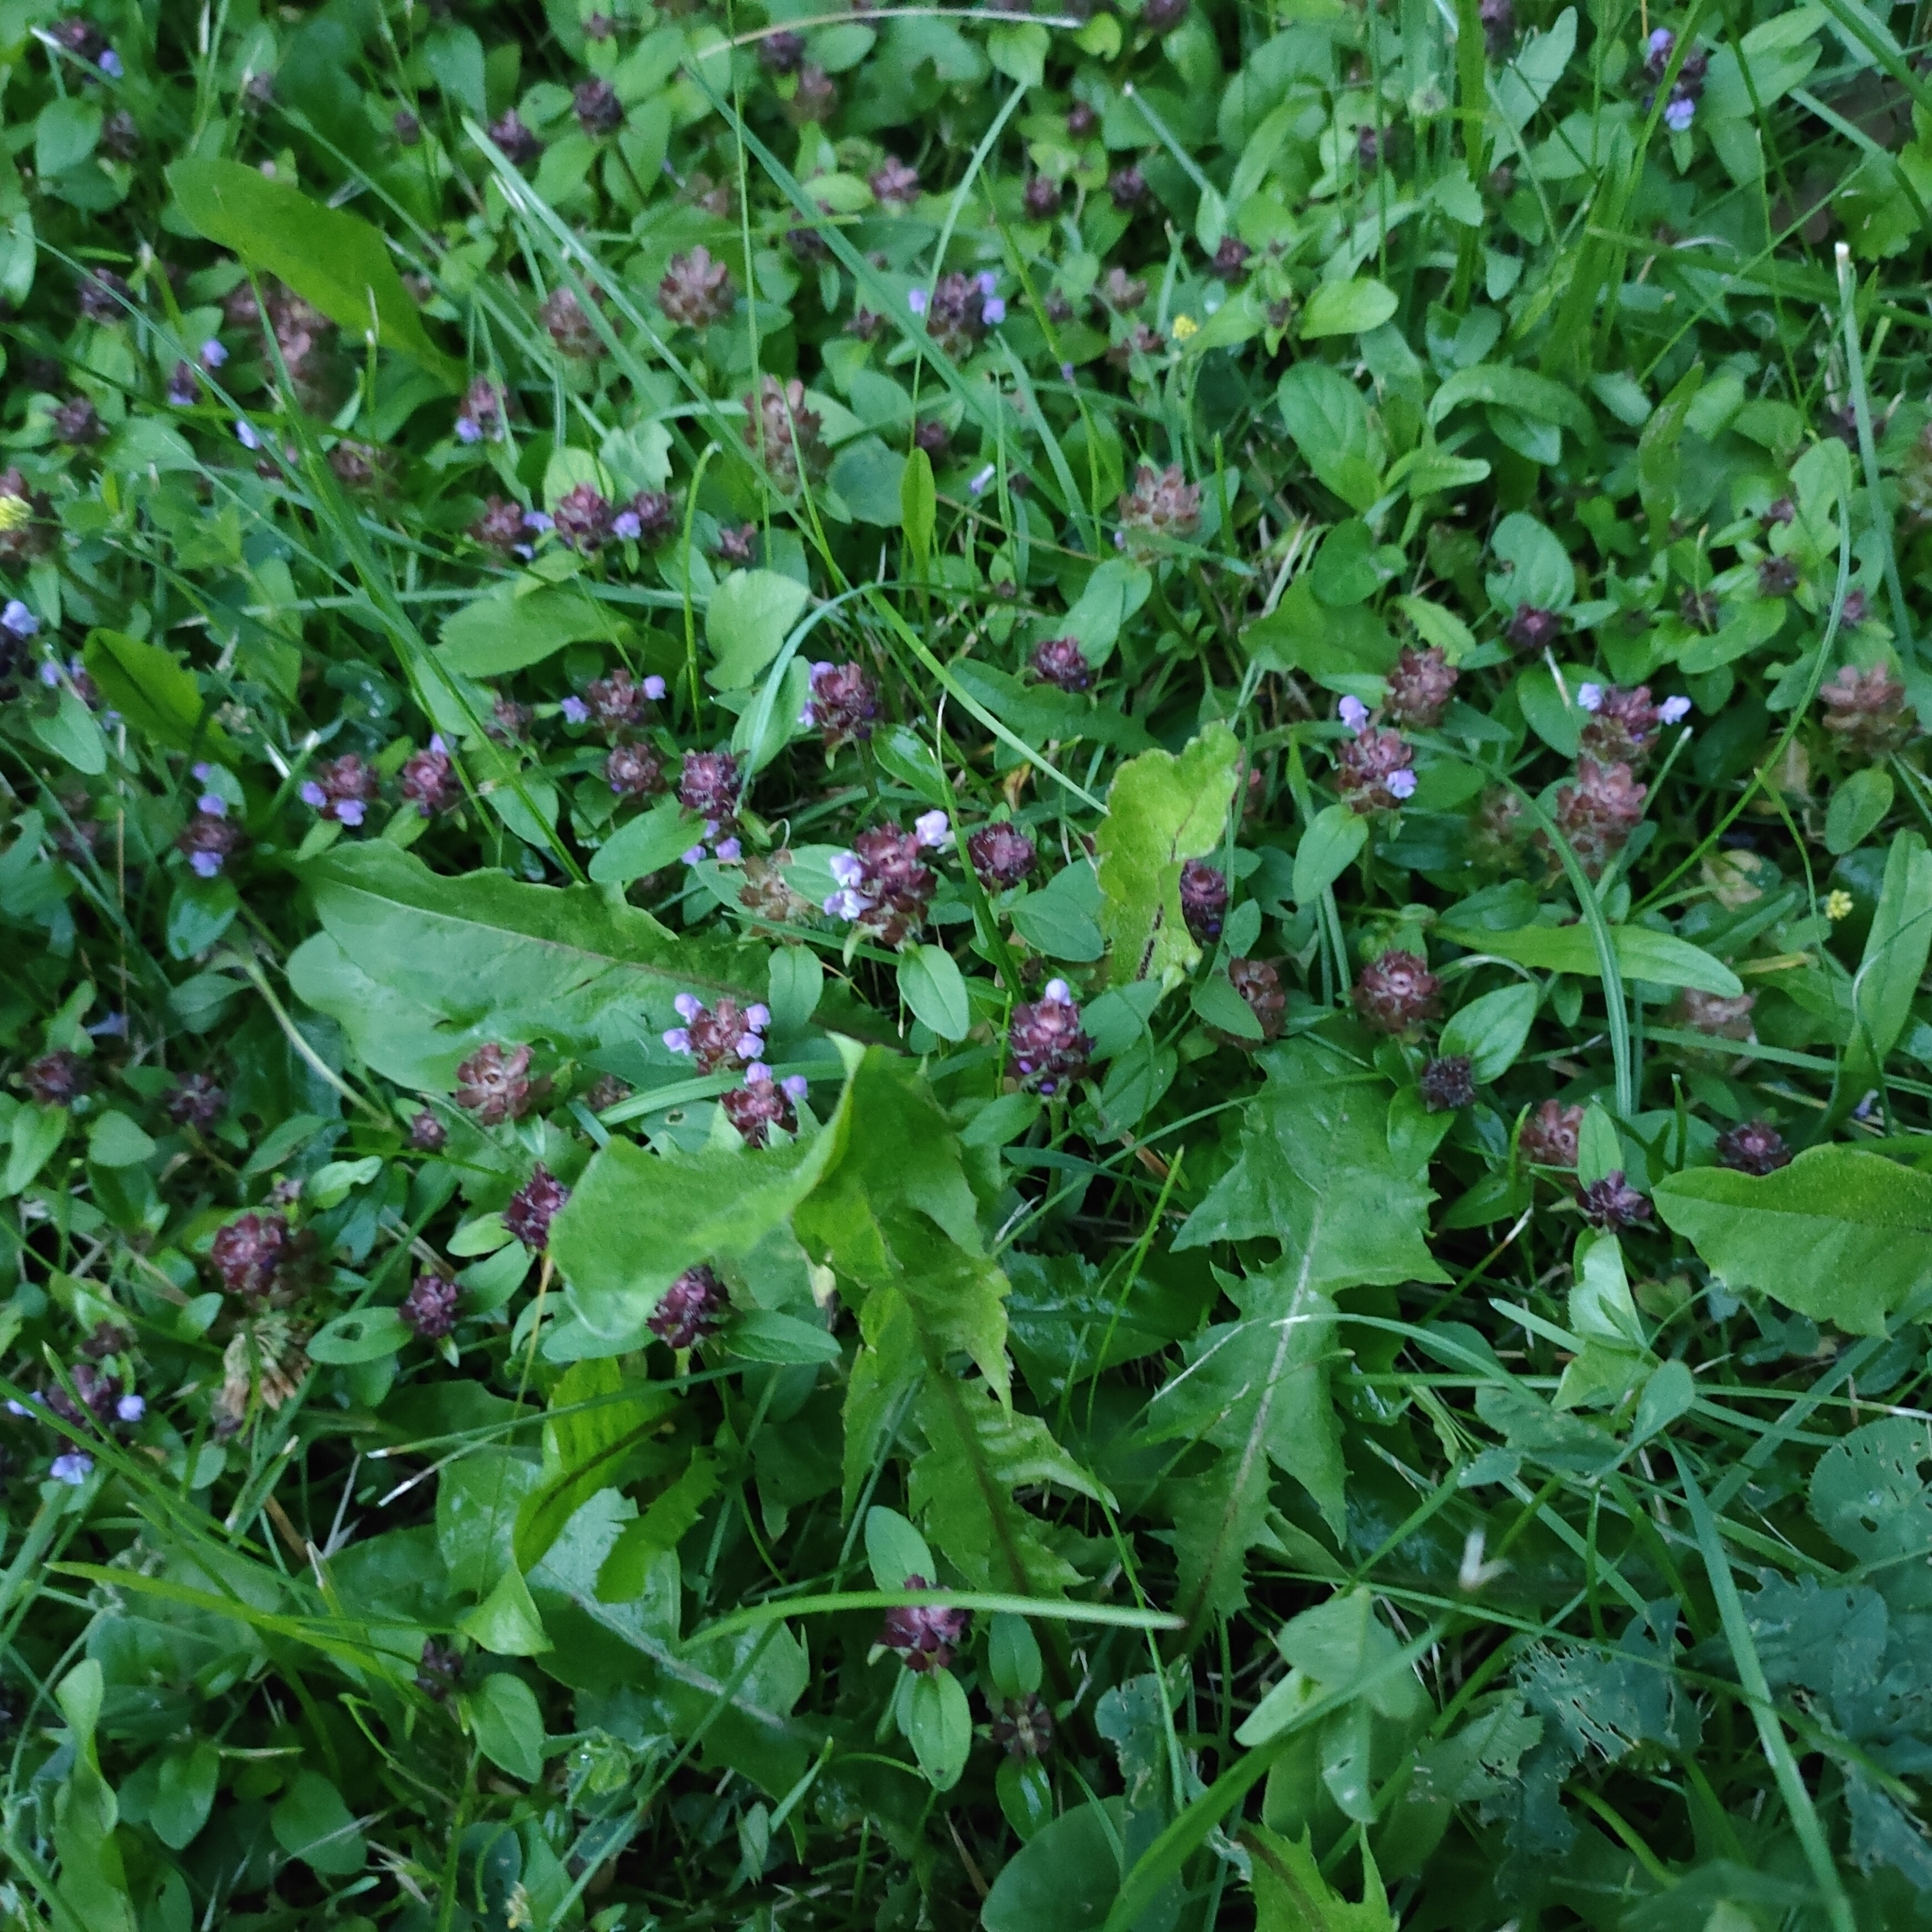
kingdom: Plantae
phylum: Tracheophyta
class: Magnoliopsida
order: Lamiales
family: Lamiaceae
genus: Prunella
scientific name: Prunella vulgaris
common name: Heal-all
